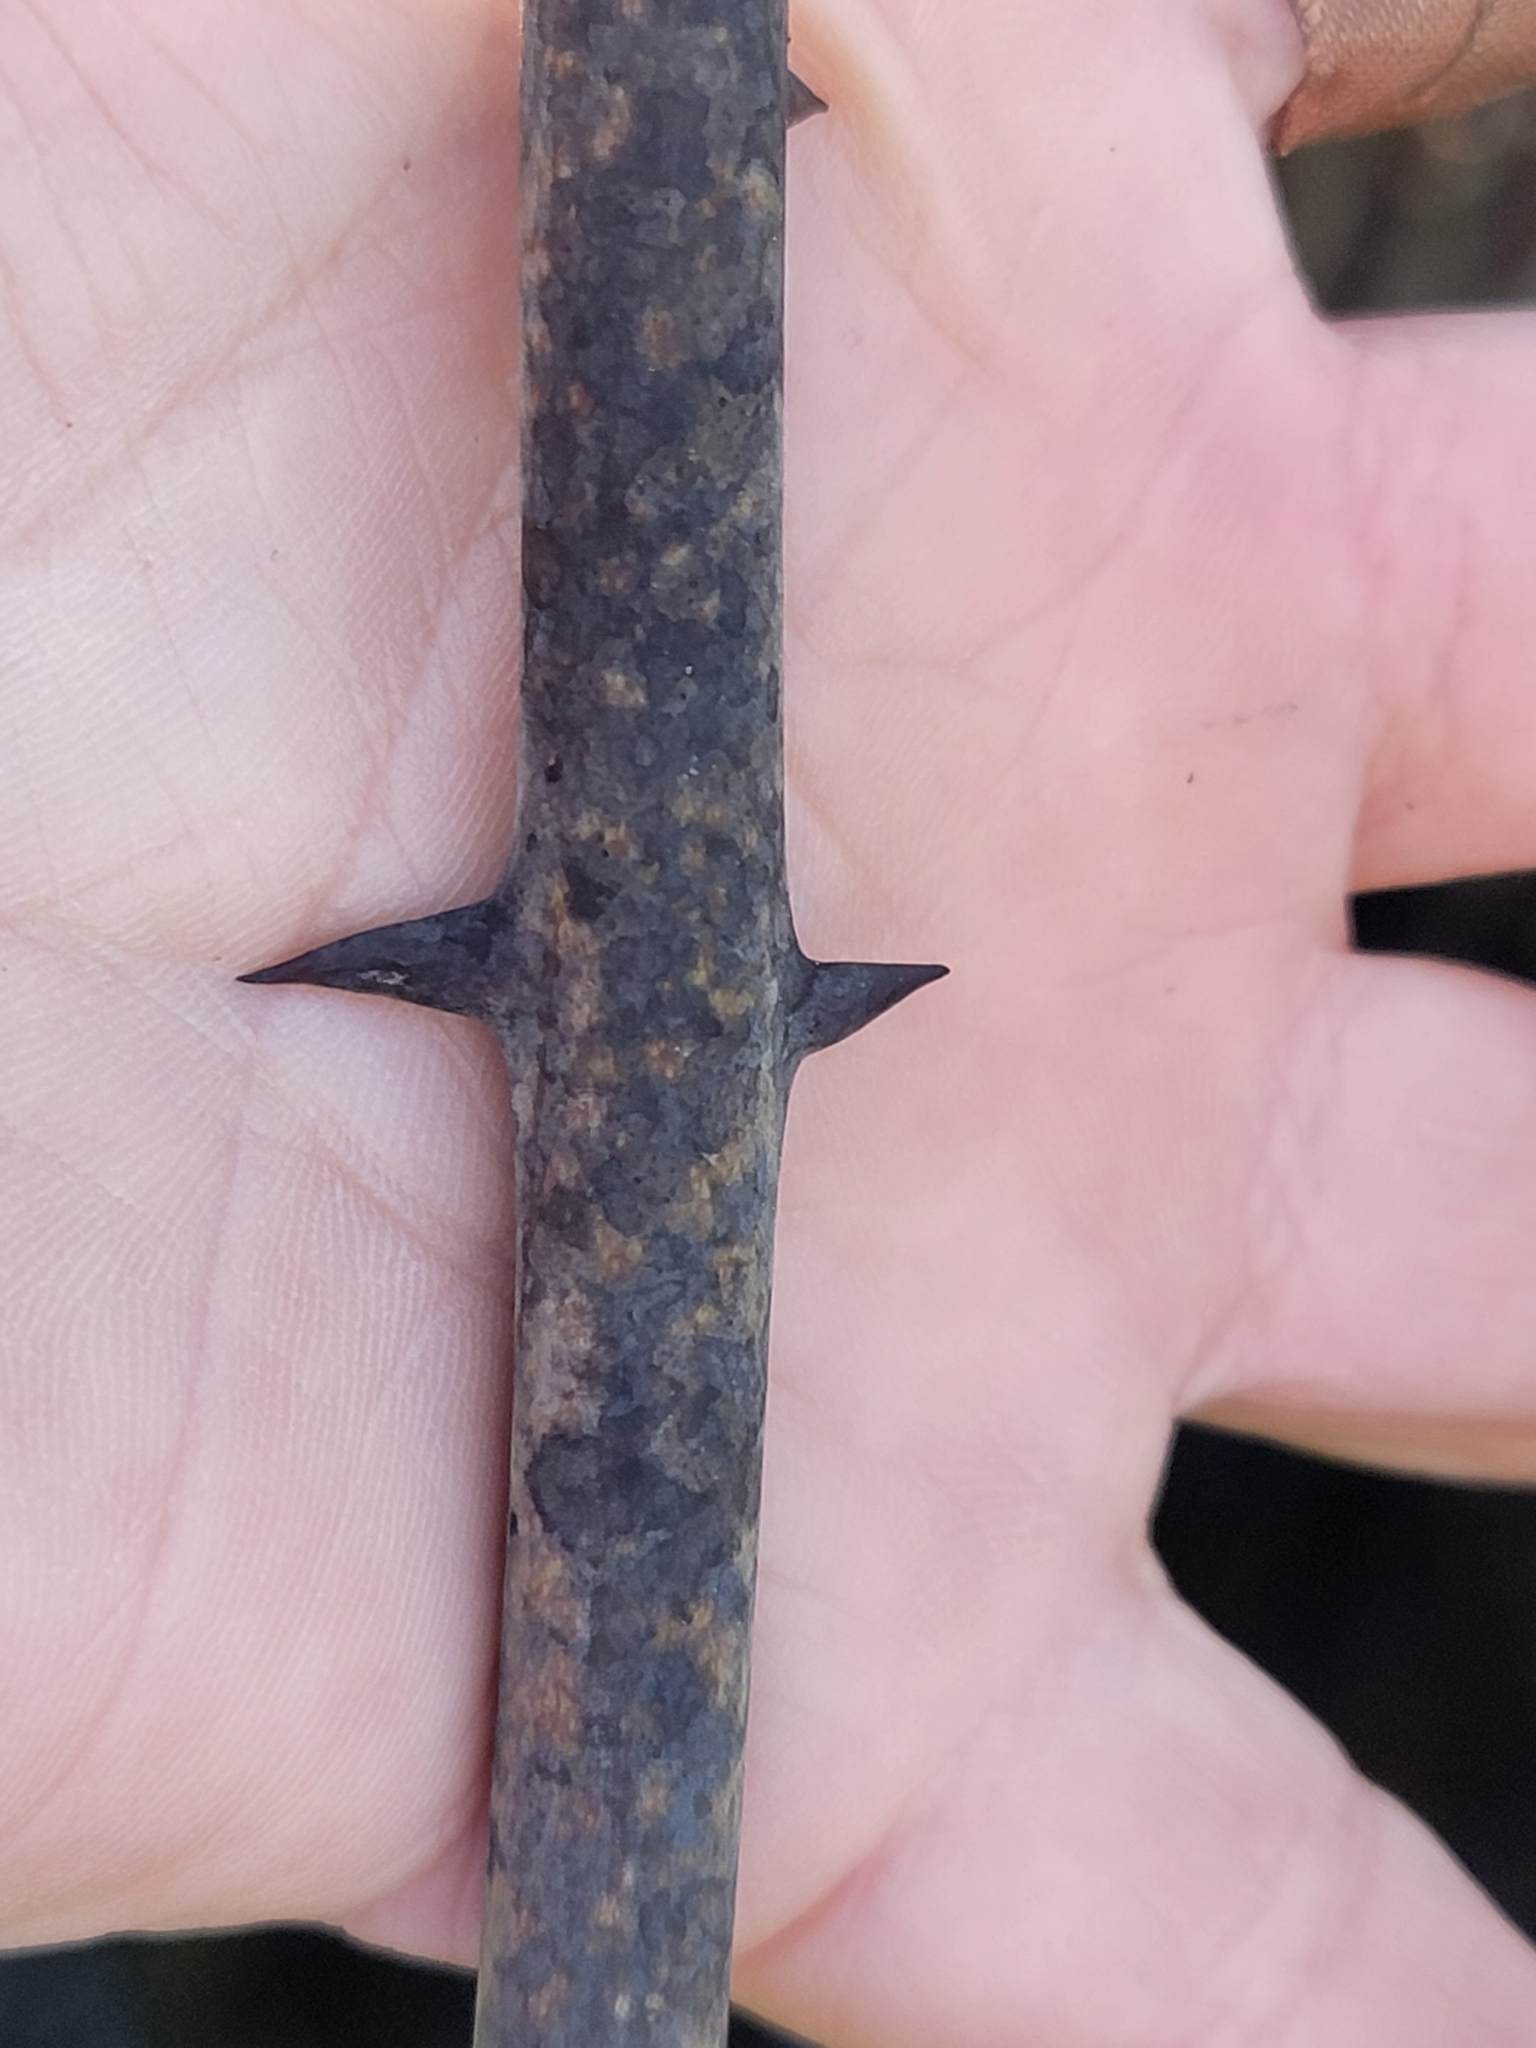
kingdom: Plantae
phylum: Tracheophyta
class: Liliopsida
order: Liliales
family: Smilacaceae
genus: Smilax
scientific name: Smilax laurifolia
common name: Bamboovine
